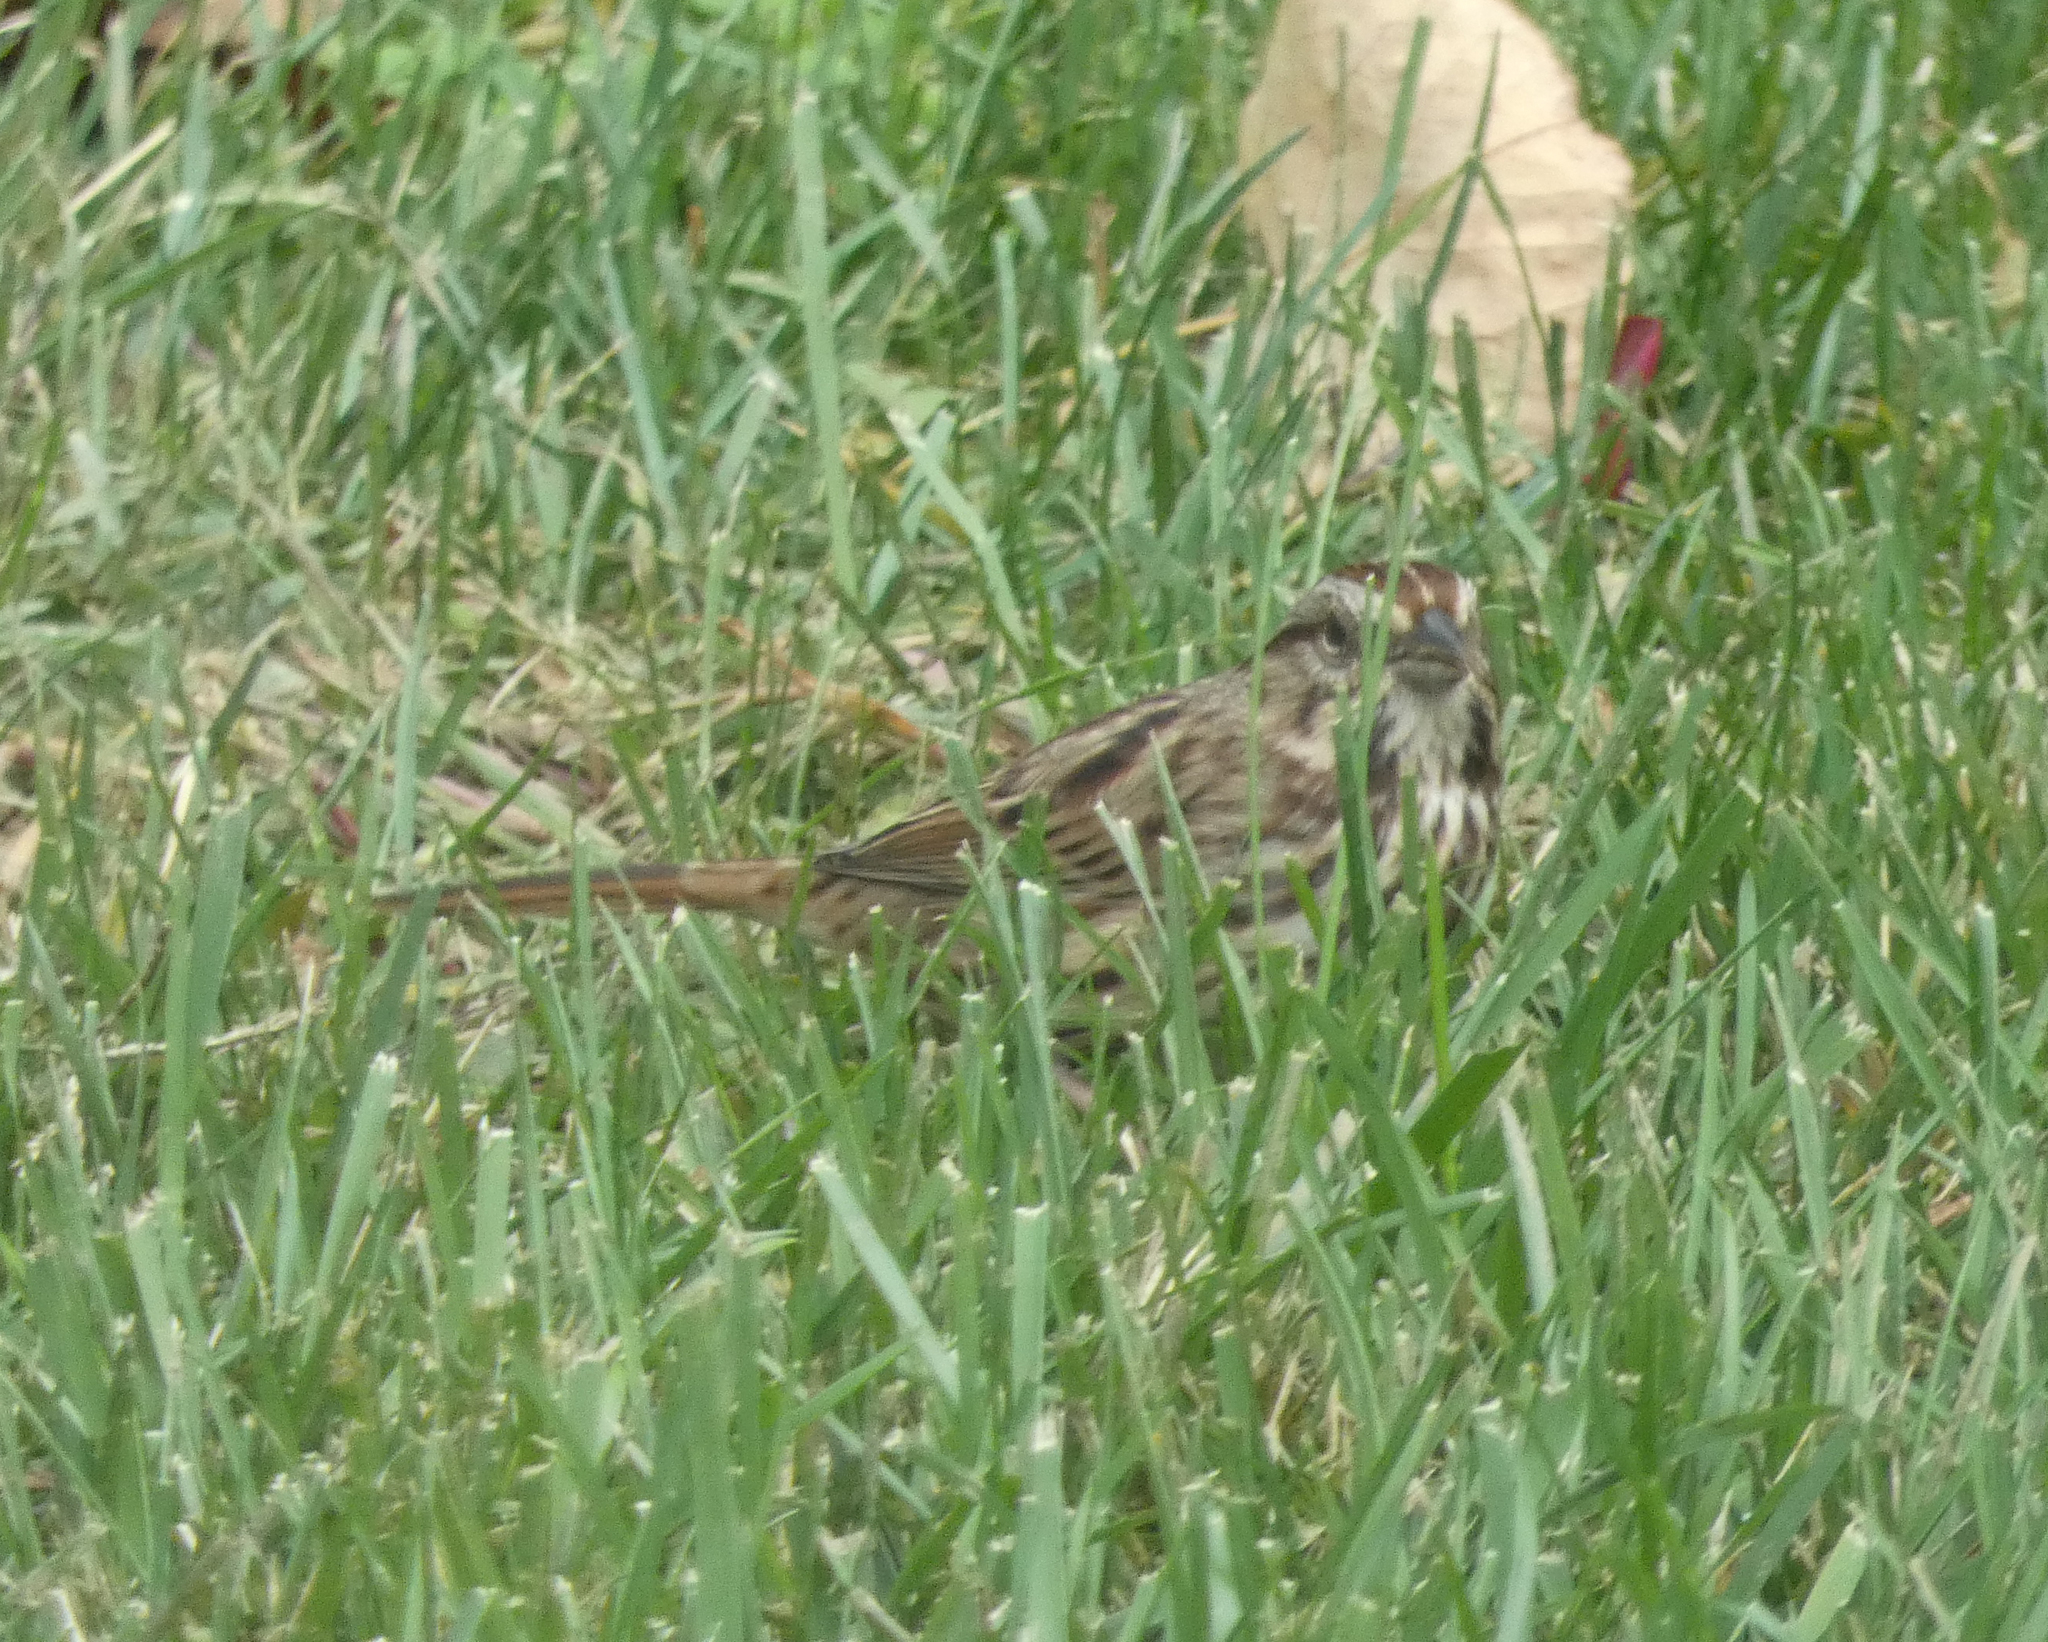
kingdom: Animalia
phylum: Chordata
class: Aves
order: Passeriformes
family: Passerellidae
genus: Melospiza
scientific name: Melospiza melodia
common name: Song sparrow
